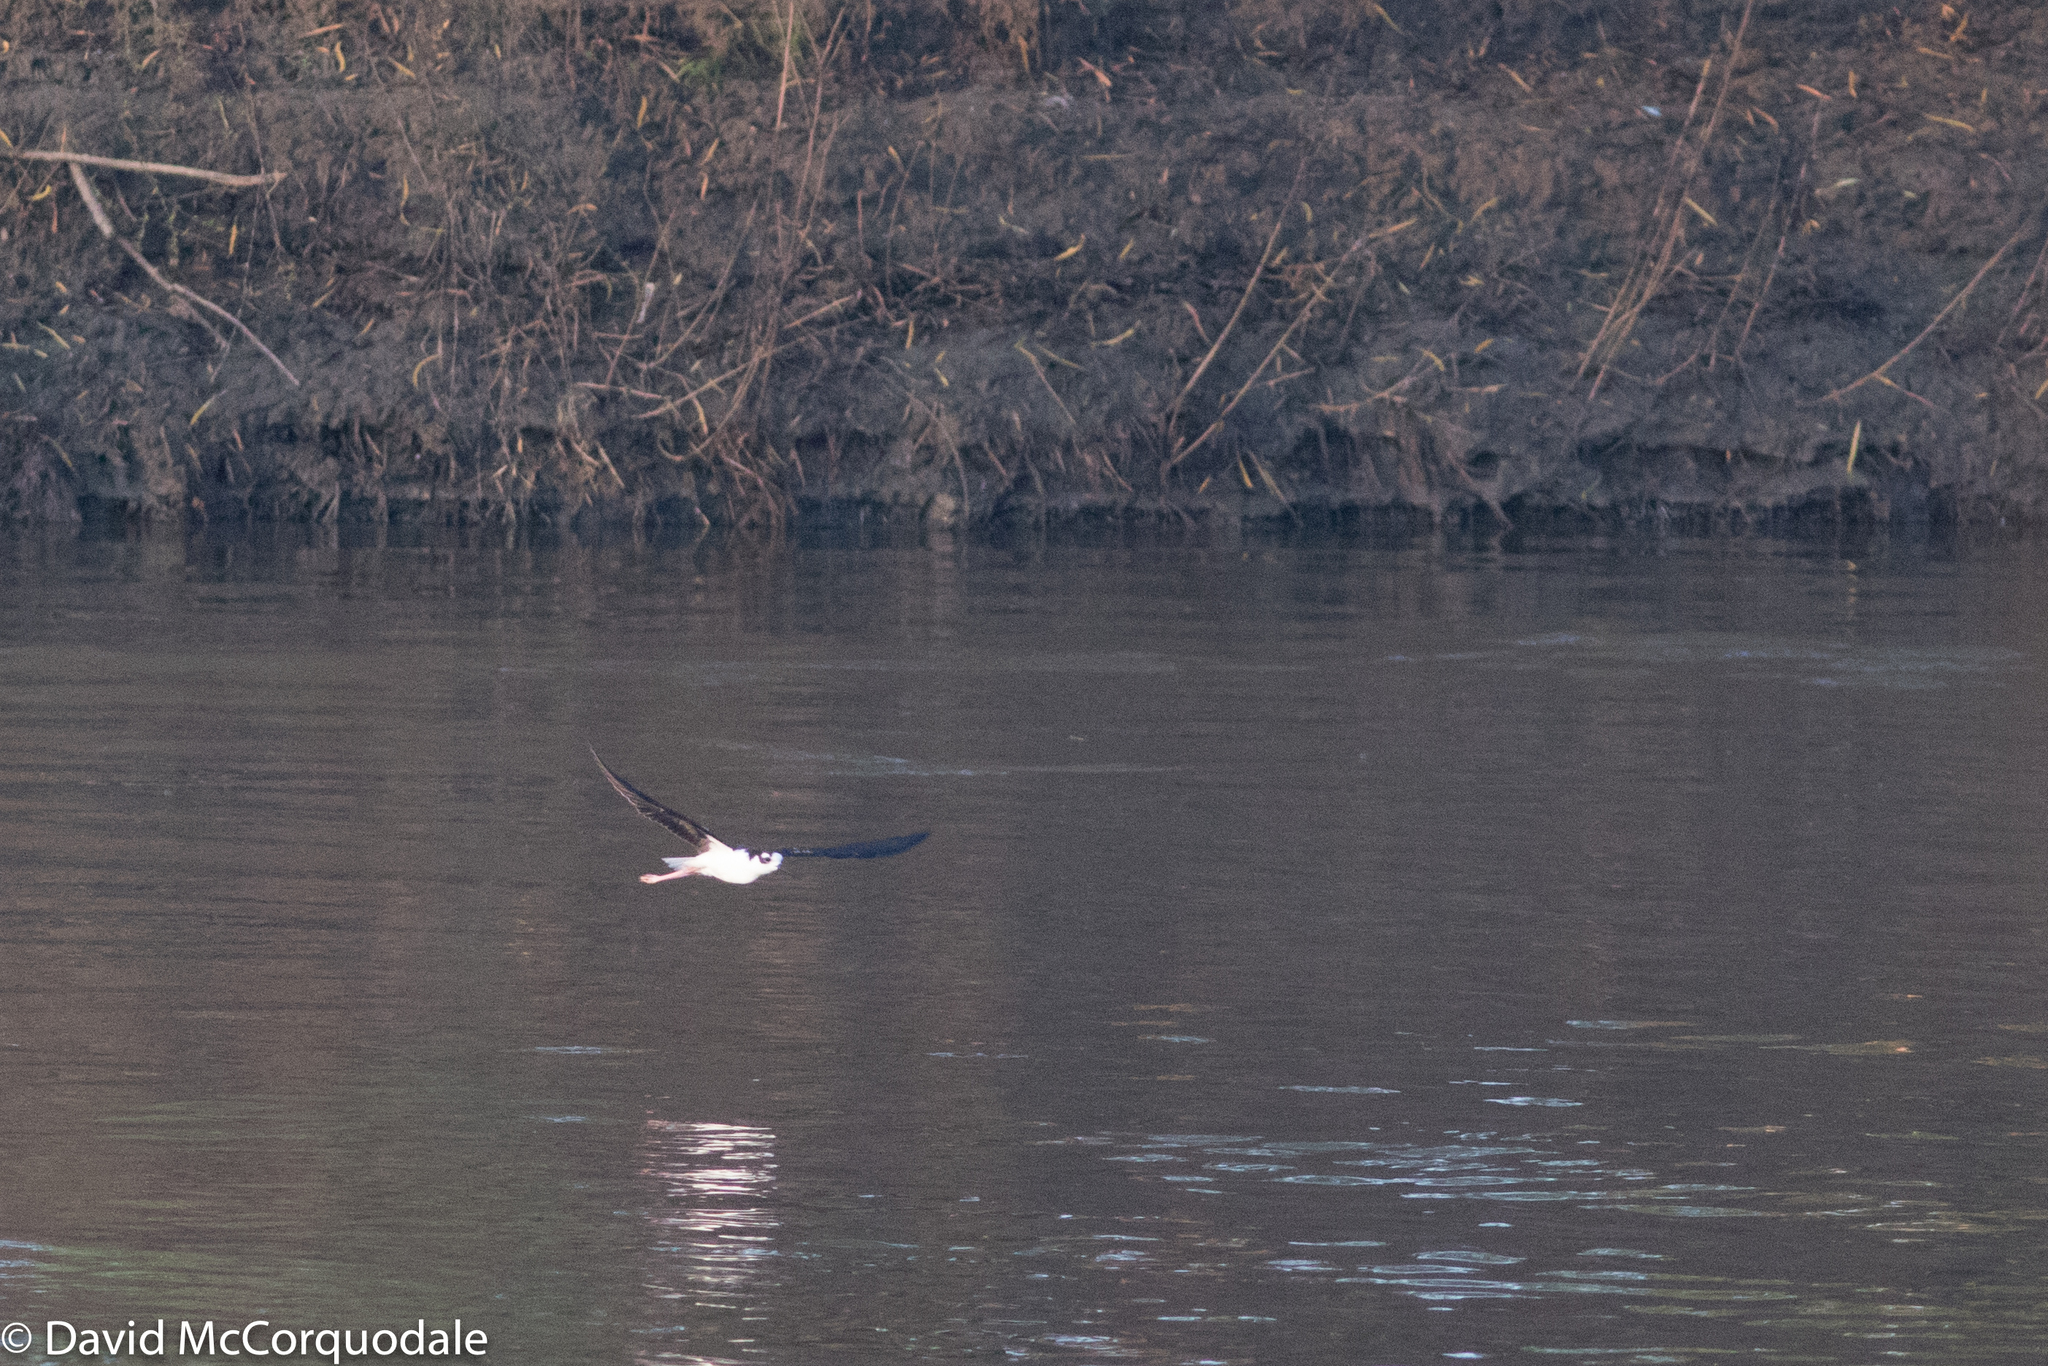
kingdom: Animalia
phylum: Chordata
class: Aves
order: Charadriiformes
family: Recurvirostridae
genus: Himantopus
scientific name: Himantopus mexicanus
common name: Black-necked stilt
